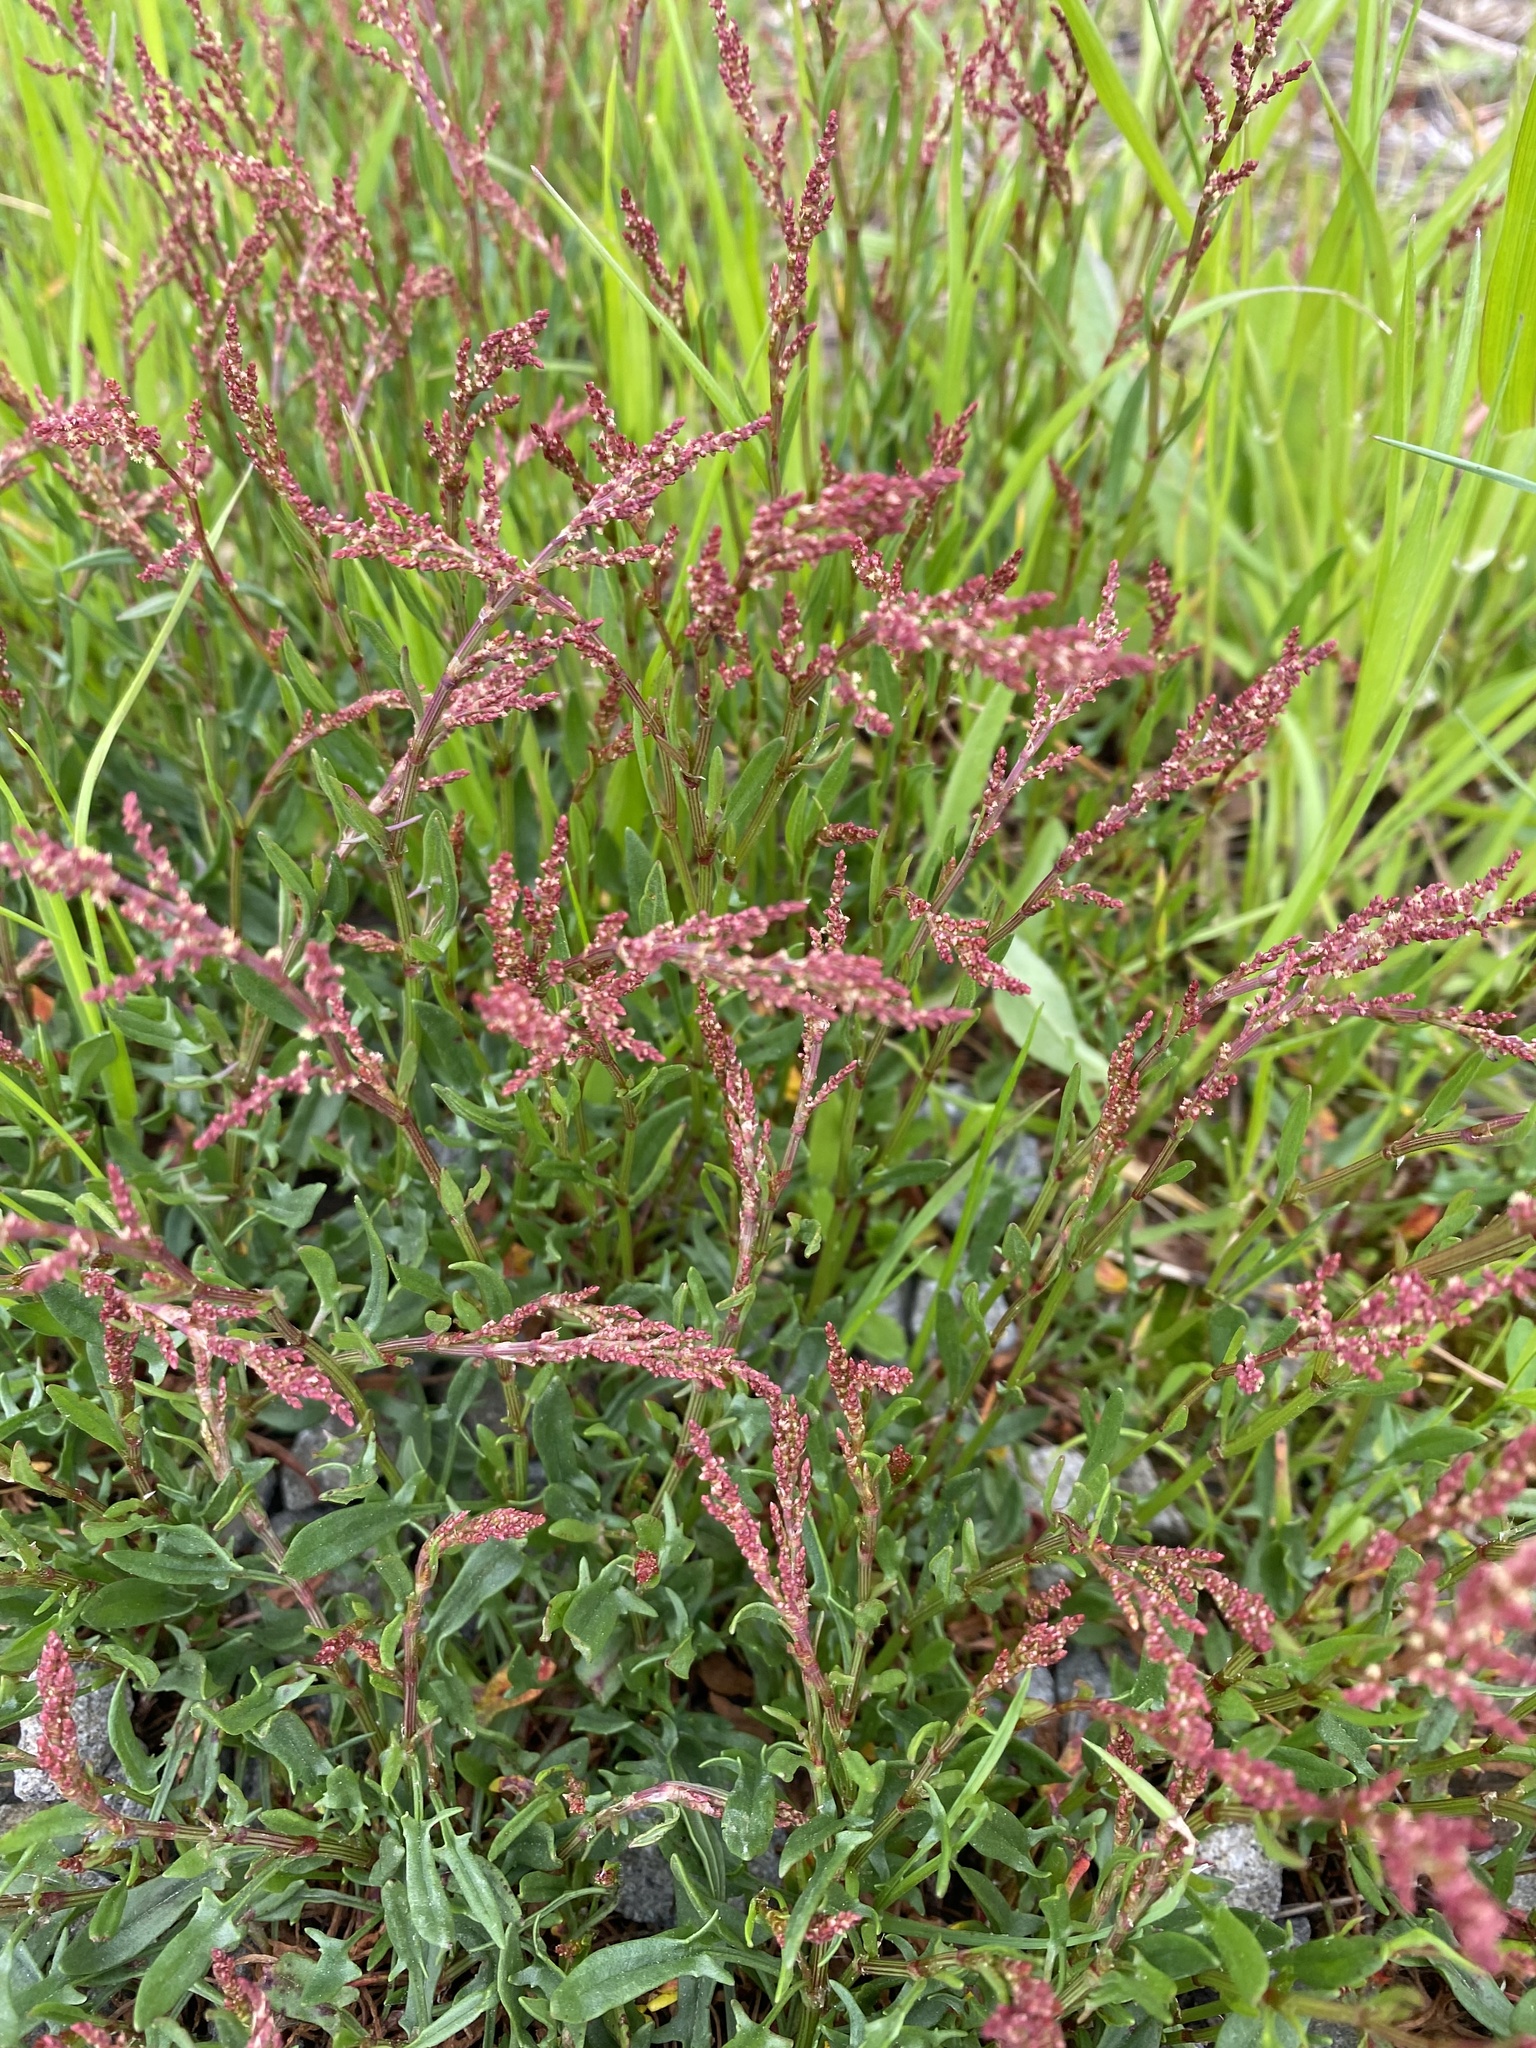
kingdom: Plantae
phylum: Tracheophyta
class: Magnoliopsida
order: Caryophyllales
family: Polygonaceae
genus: Rumex
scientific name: Rumex acetosella
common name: Common sheep sorrel
